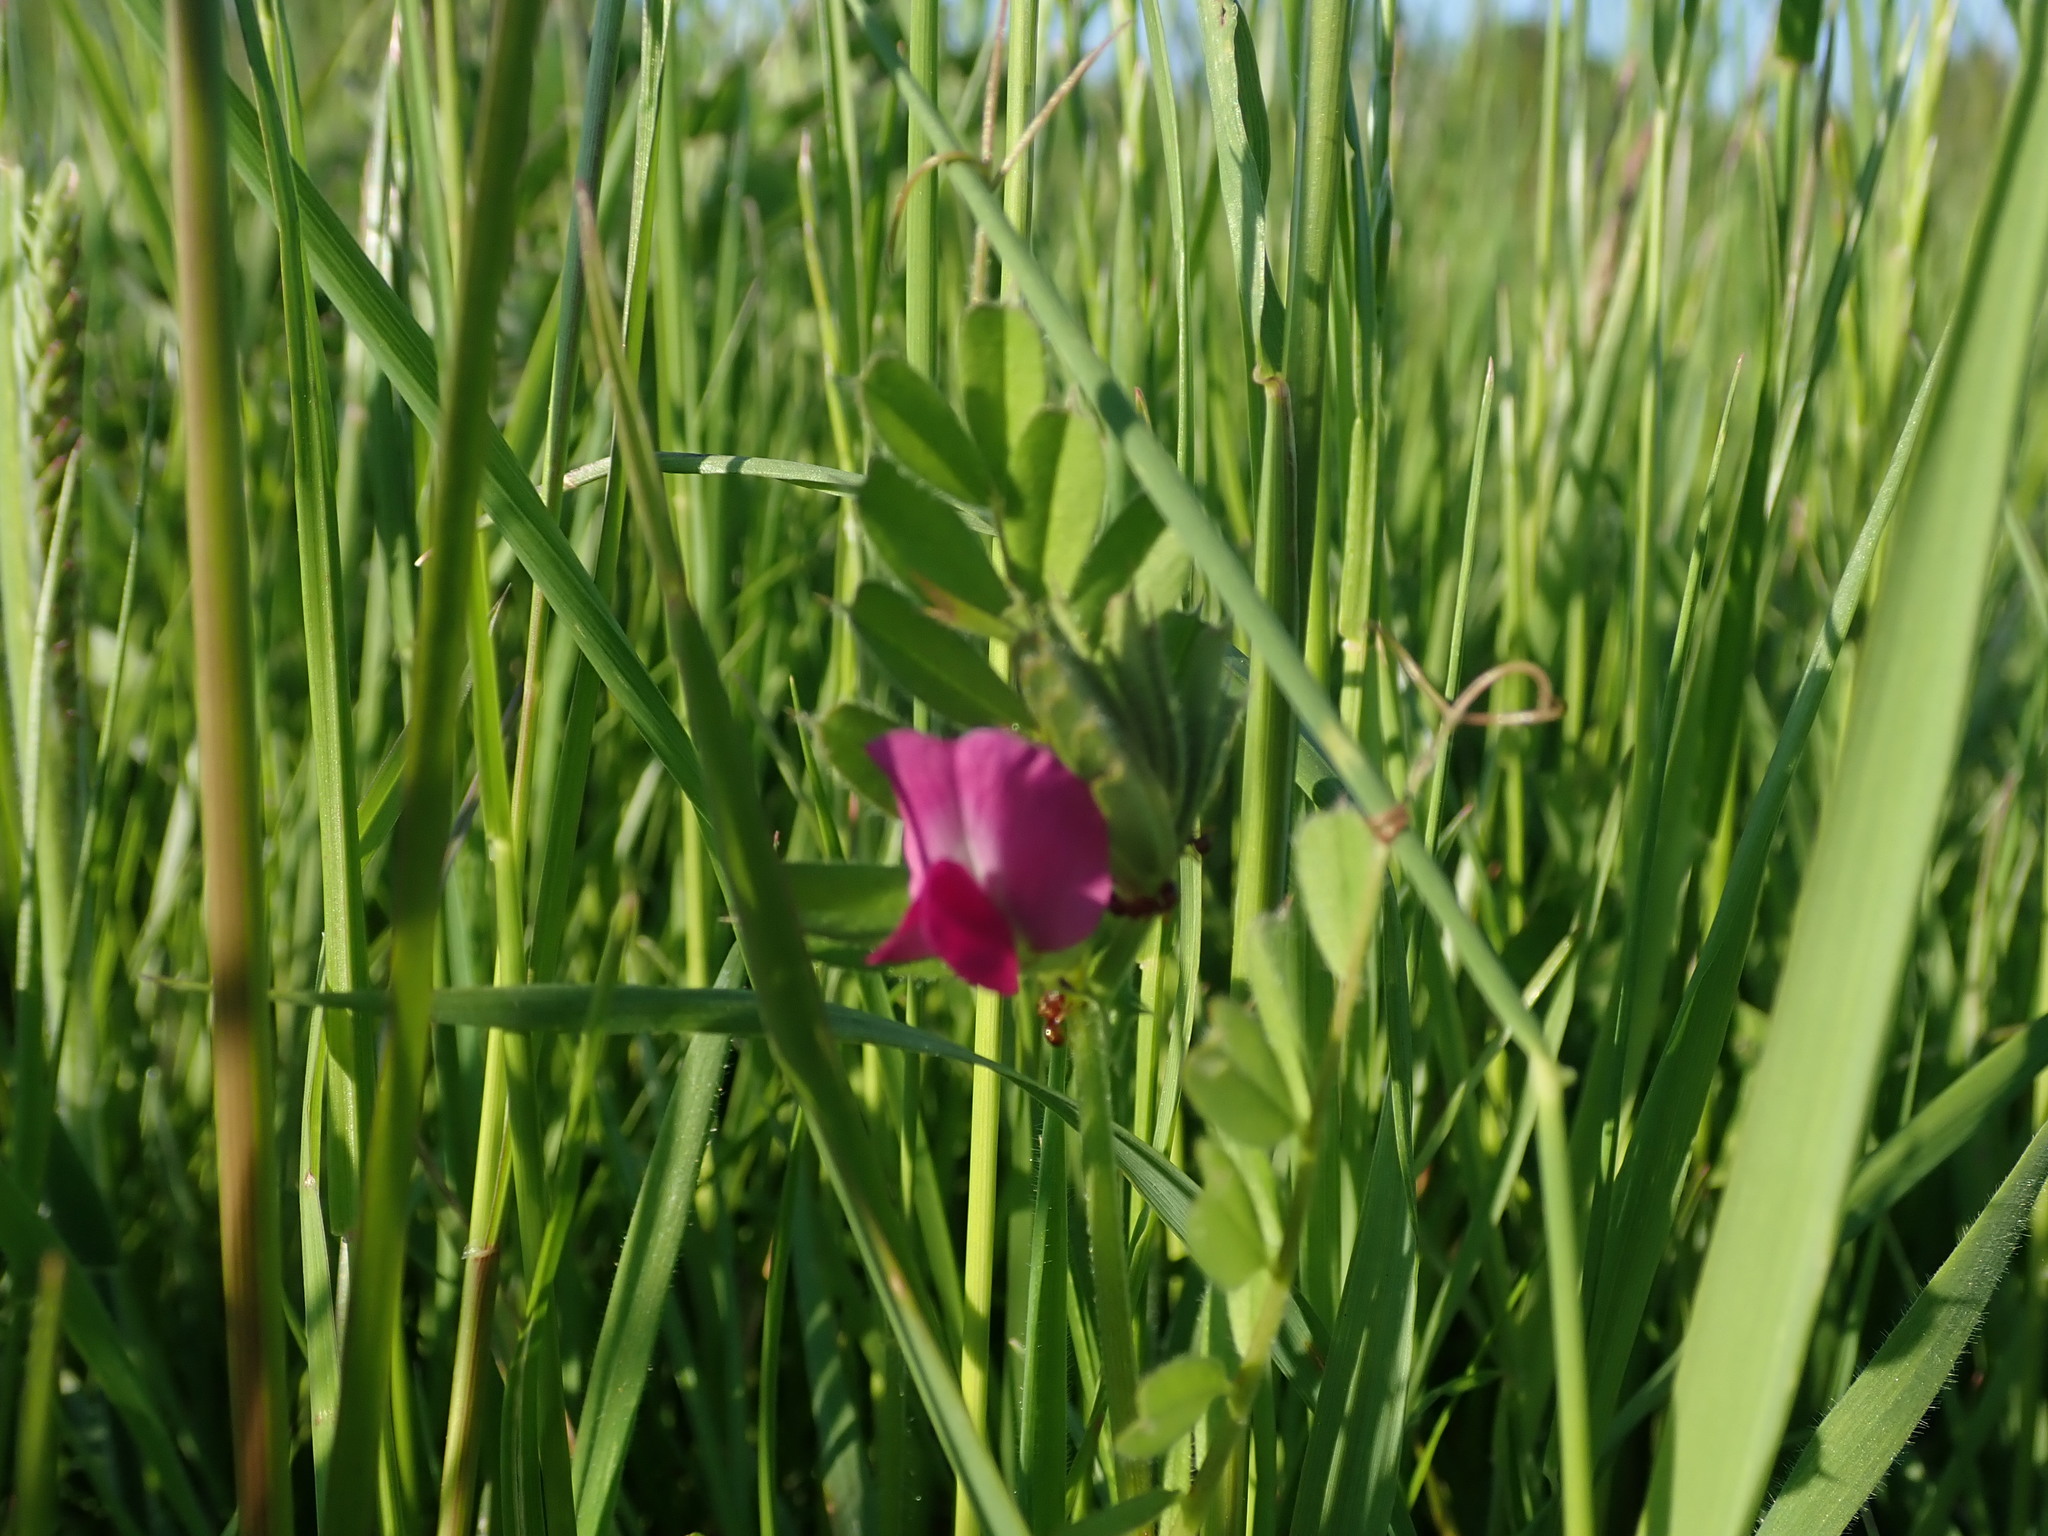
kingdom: Plantae
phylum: Tracheophyta
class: Magnoliopsida
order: Fabales
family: Fabaceae
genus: Vicia
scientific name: Vicia sativa
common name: Garden vetch
